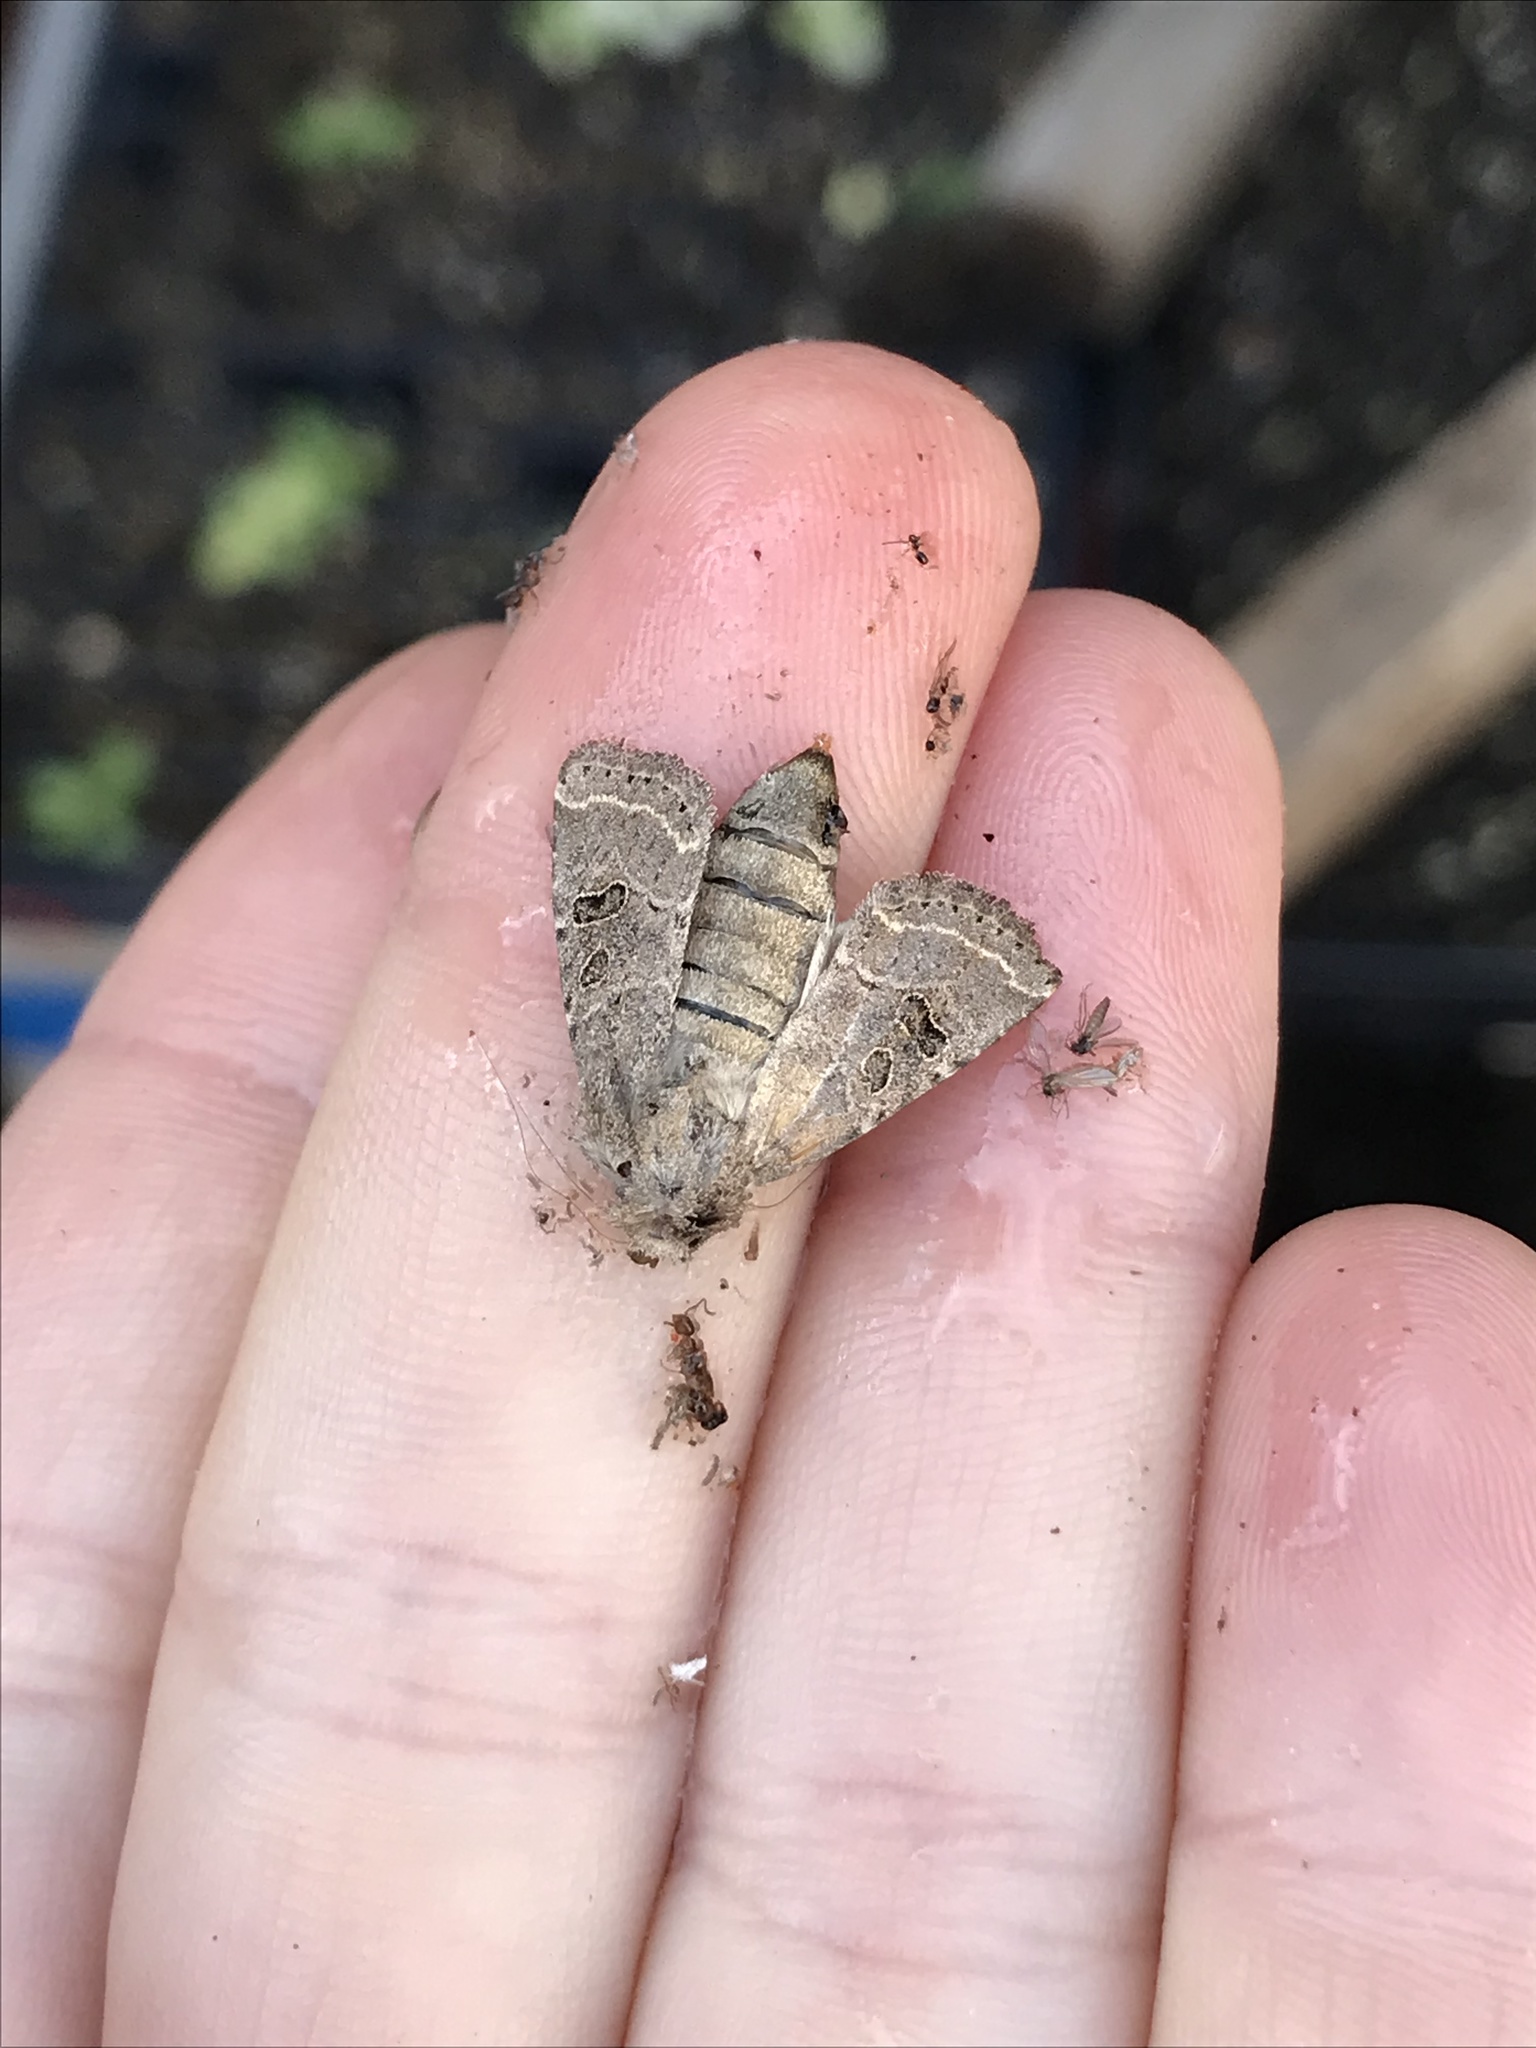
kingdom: Animalia
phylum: Arthropoda
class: Insecta
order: Lepidoptera
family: Noctuidae
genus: Trichopolia
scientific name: Trichopolia
